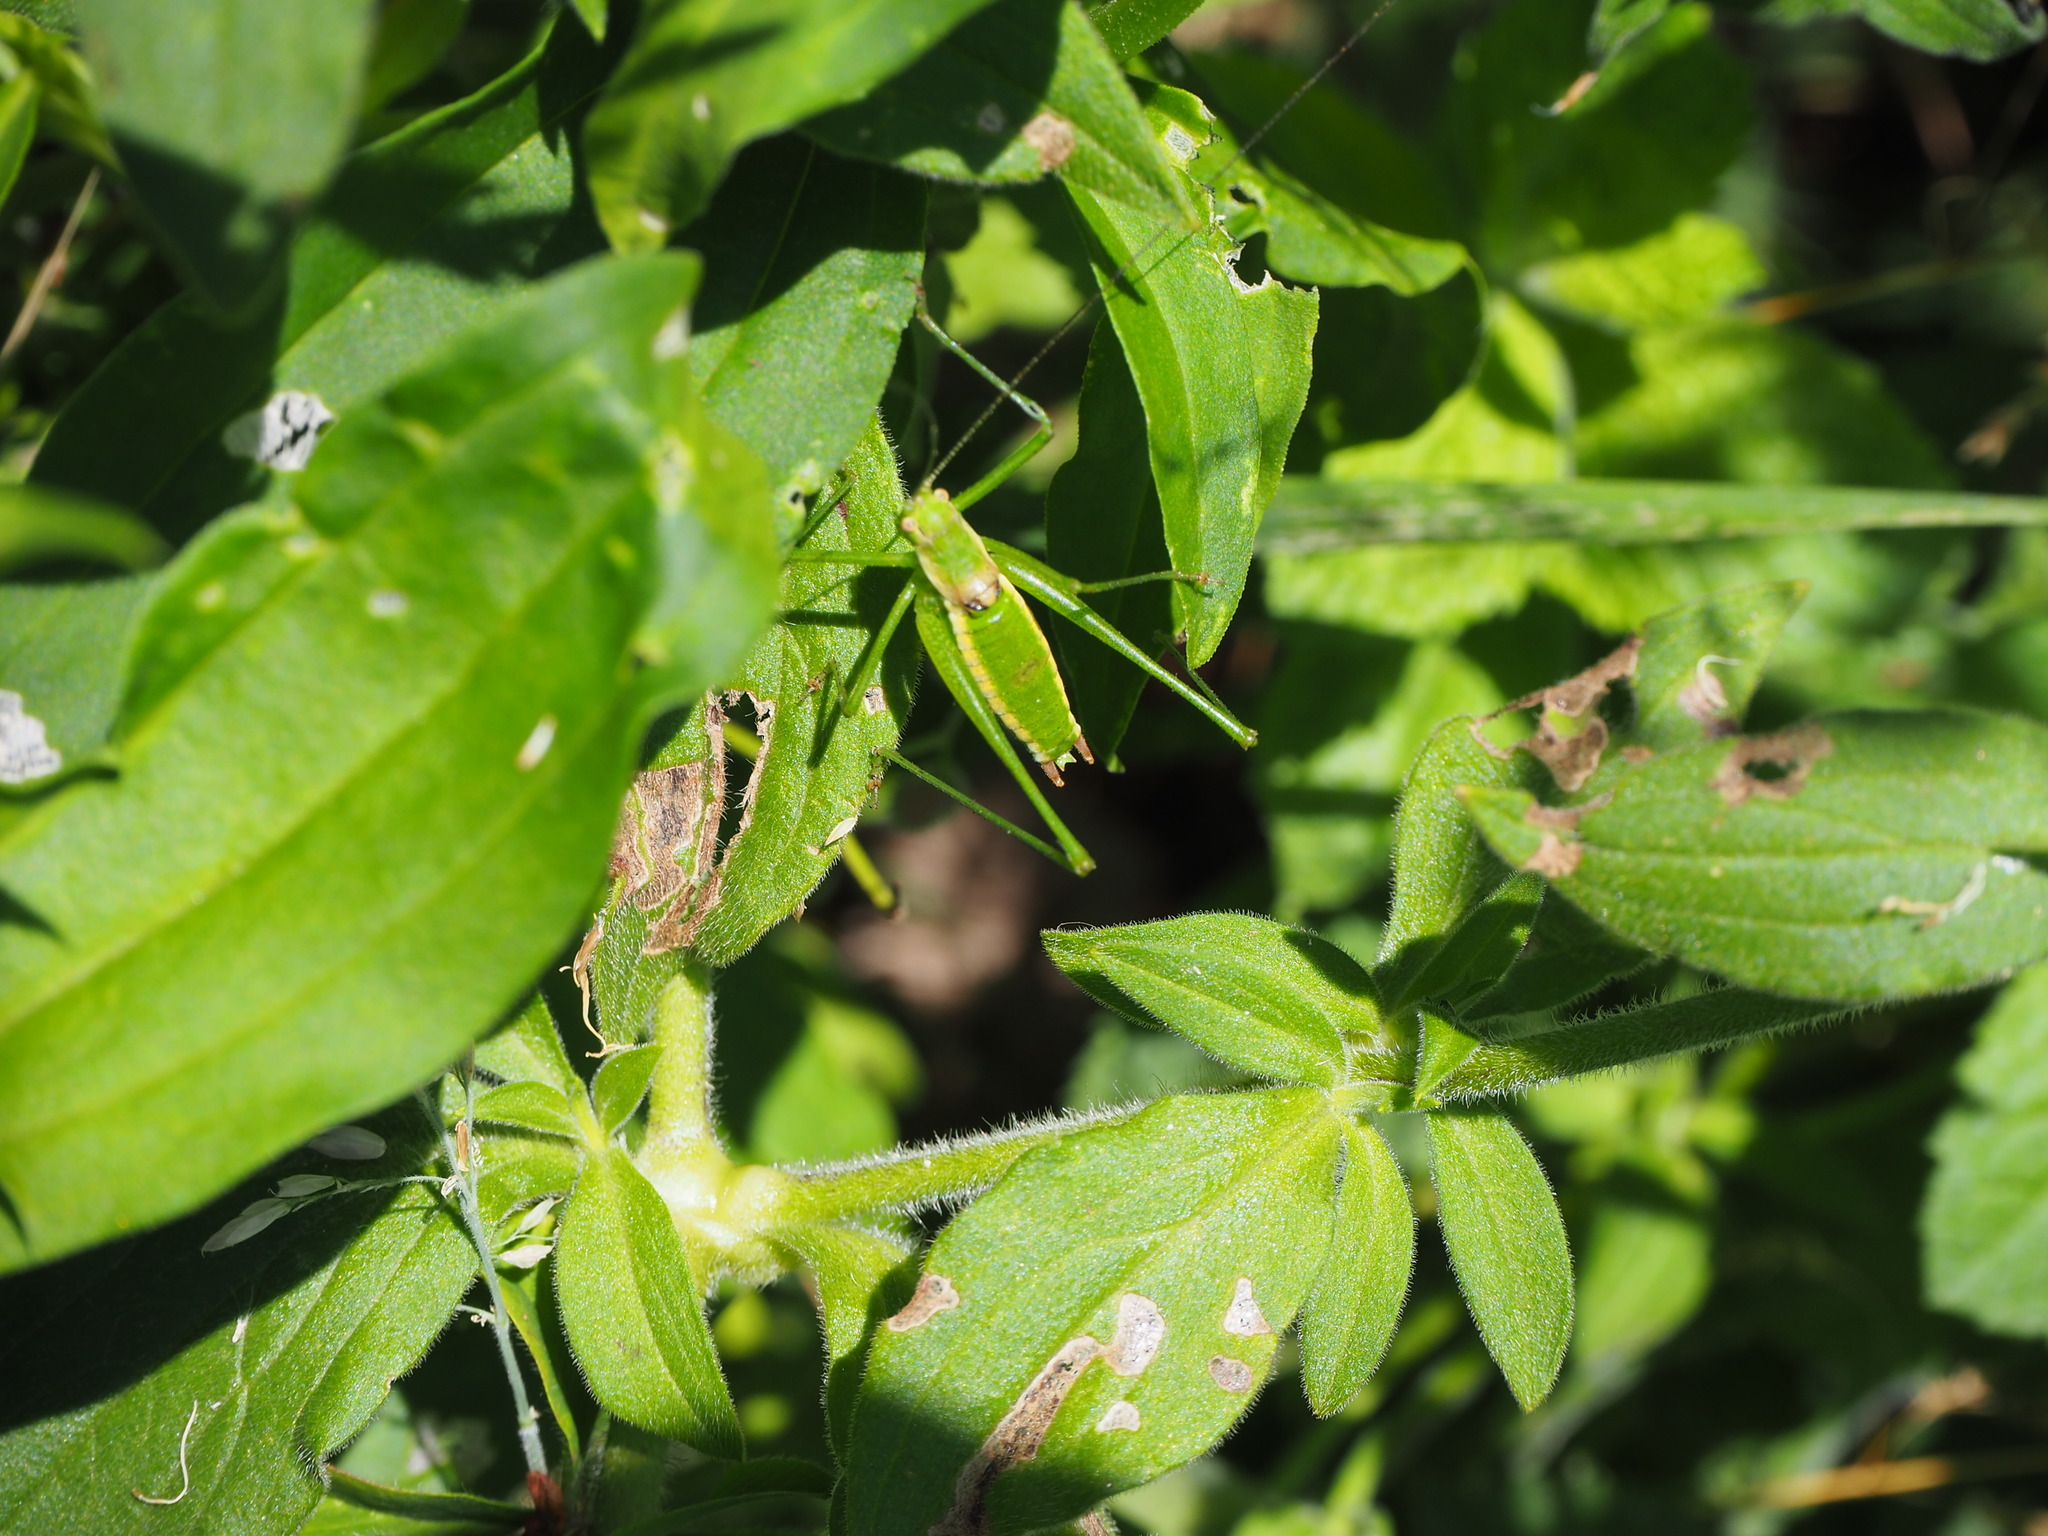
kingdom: Animalia
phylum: Arthropoda
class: Insecta
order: Orthoptera
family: Tettigoniidae
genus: Leptophyes
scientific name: Leptophyes boscii
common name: Balkan speckled bush-cricket
